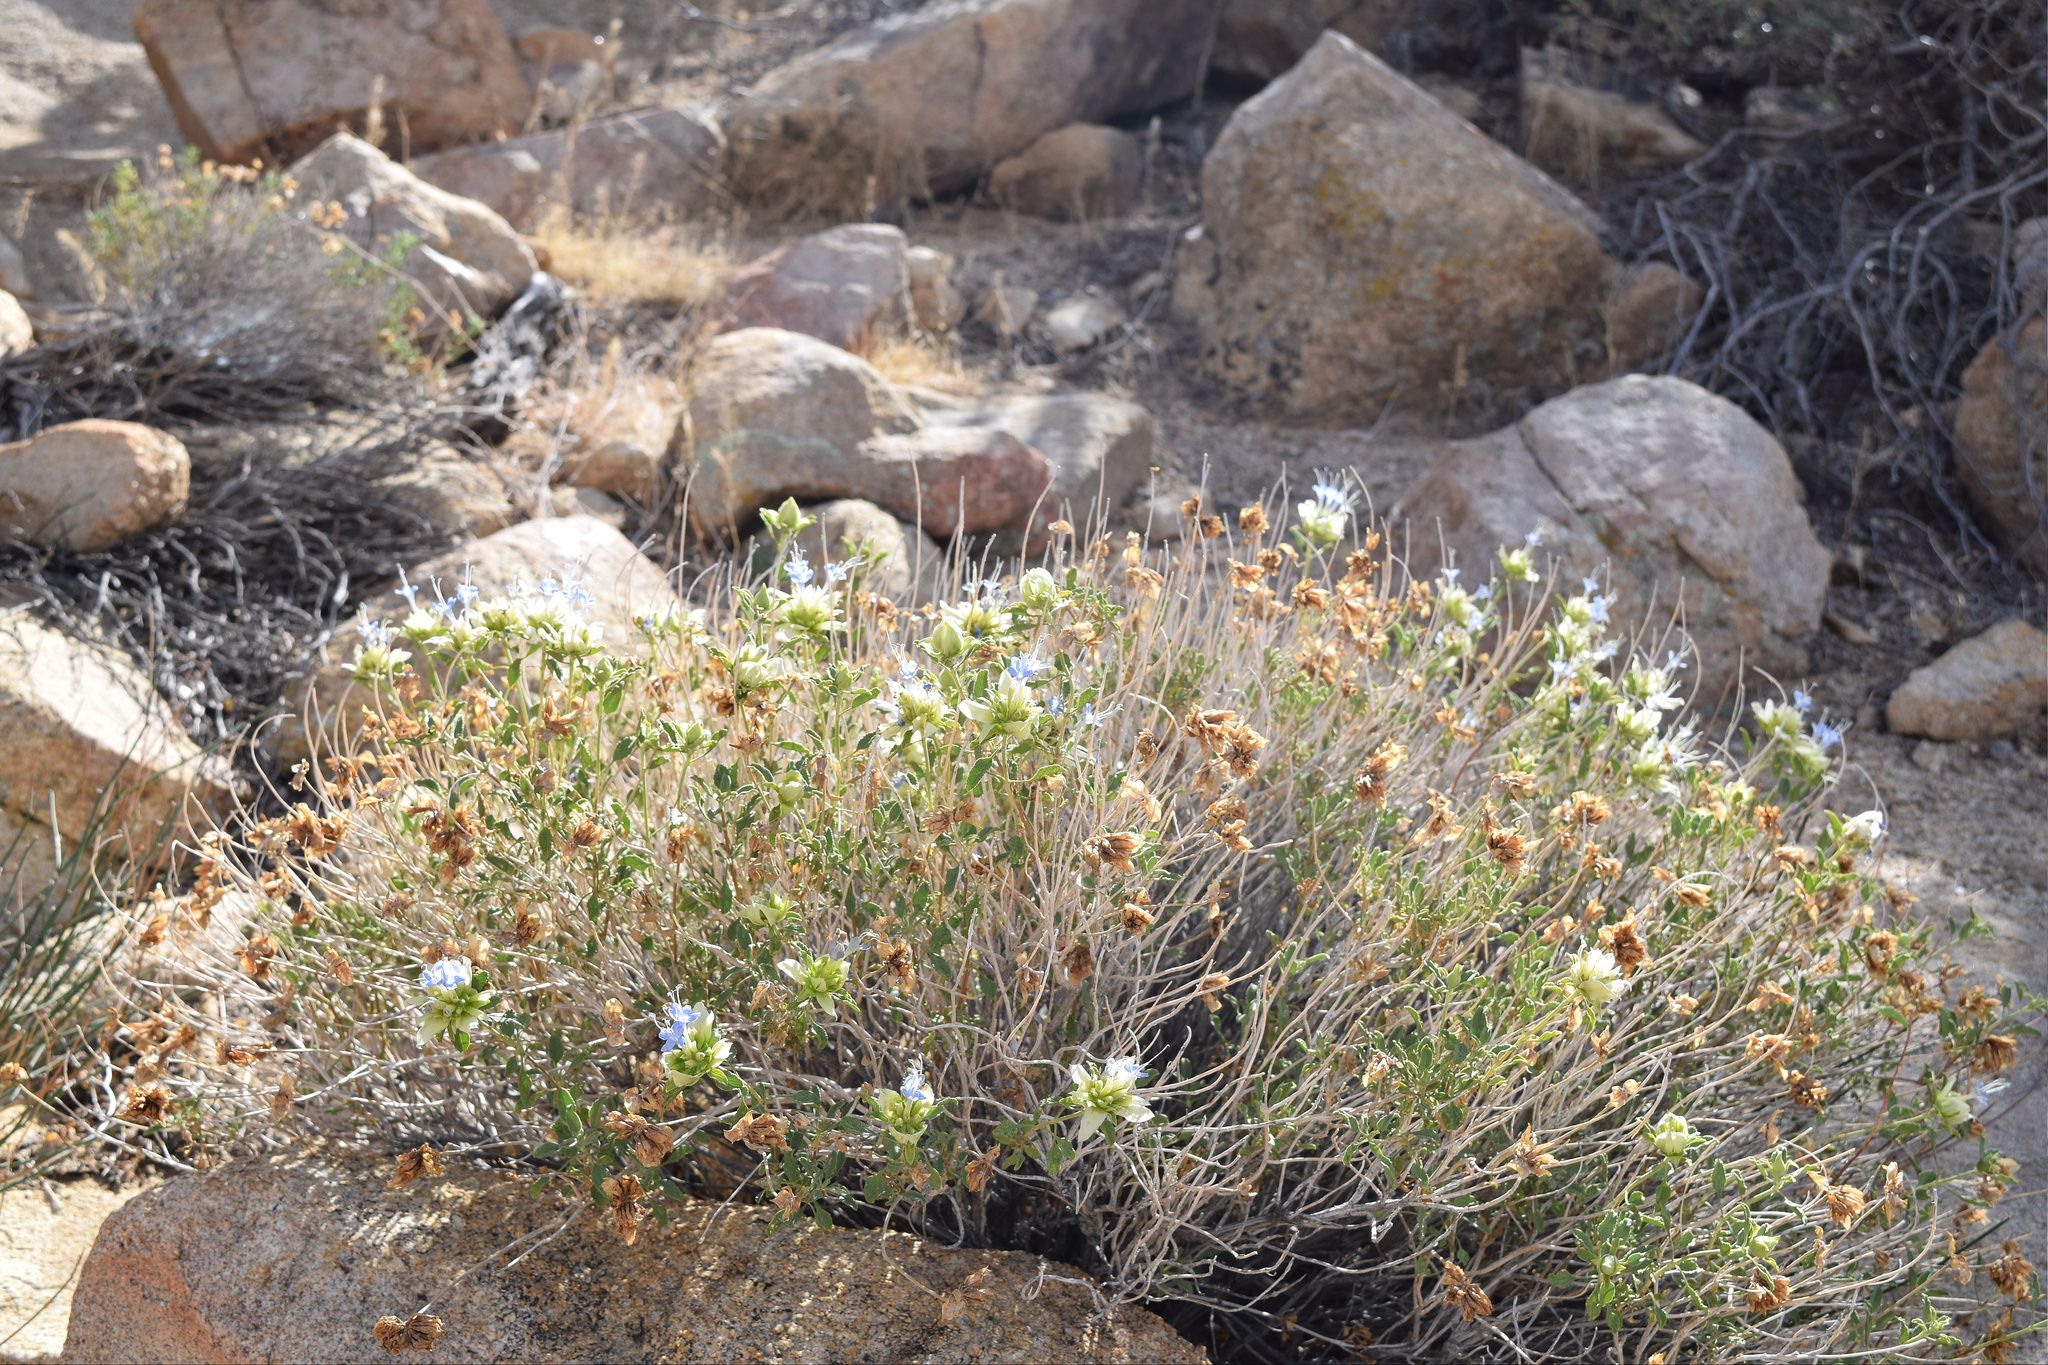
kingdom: Plantae
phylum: Tracheophyta
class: Magnoliopsida
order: Lamiales
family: Lamiaceae
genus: Salvia
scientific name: Salvia mohavensis
